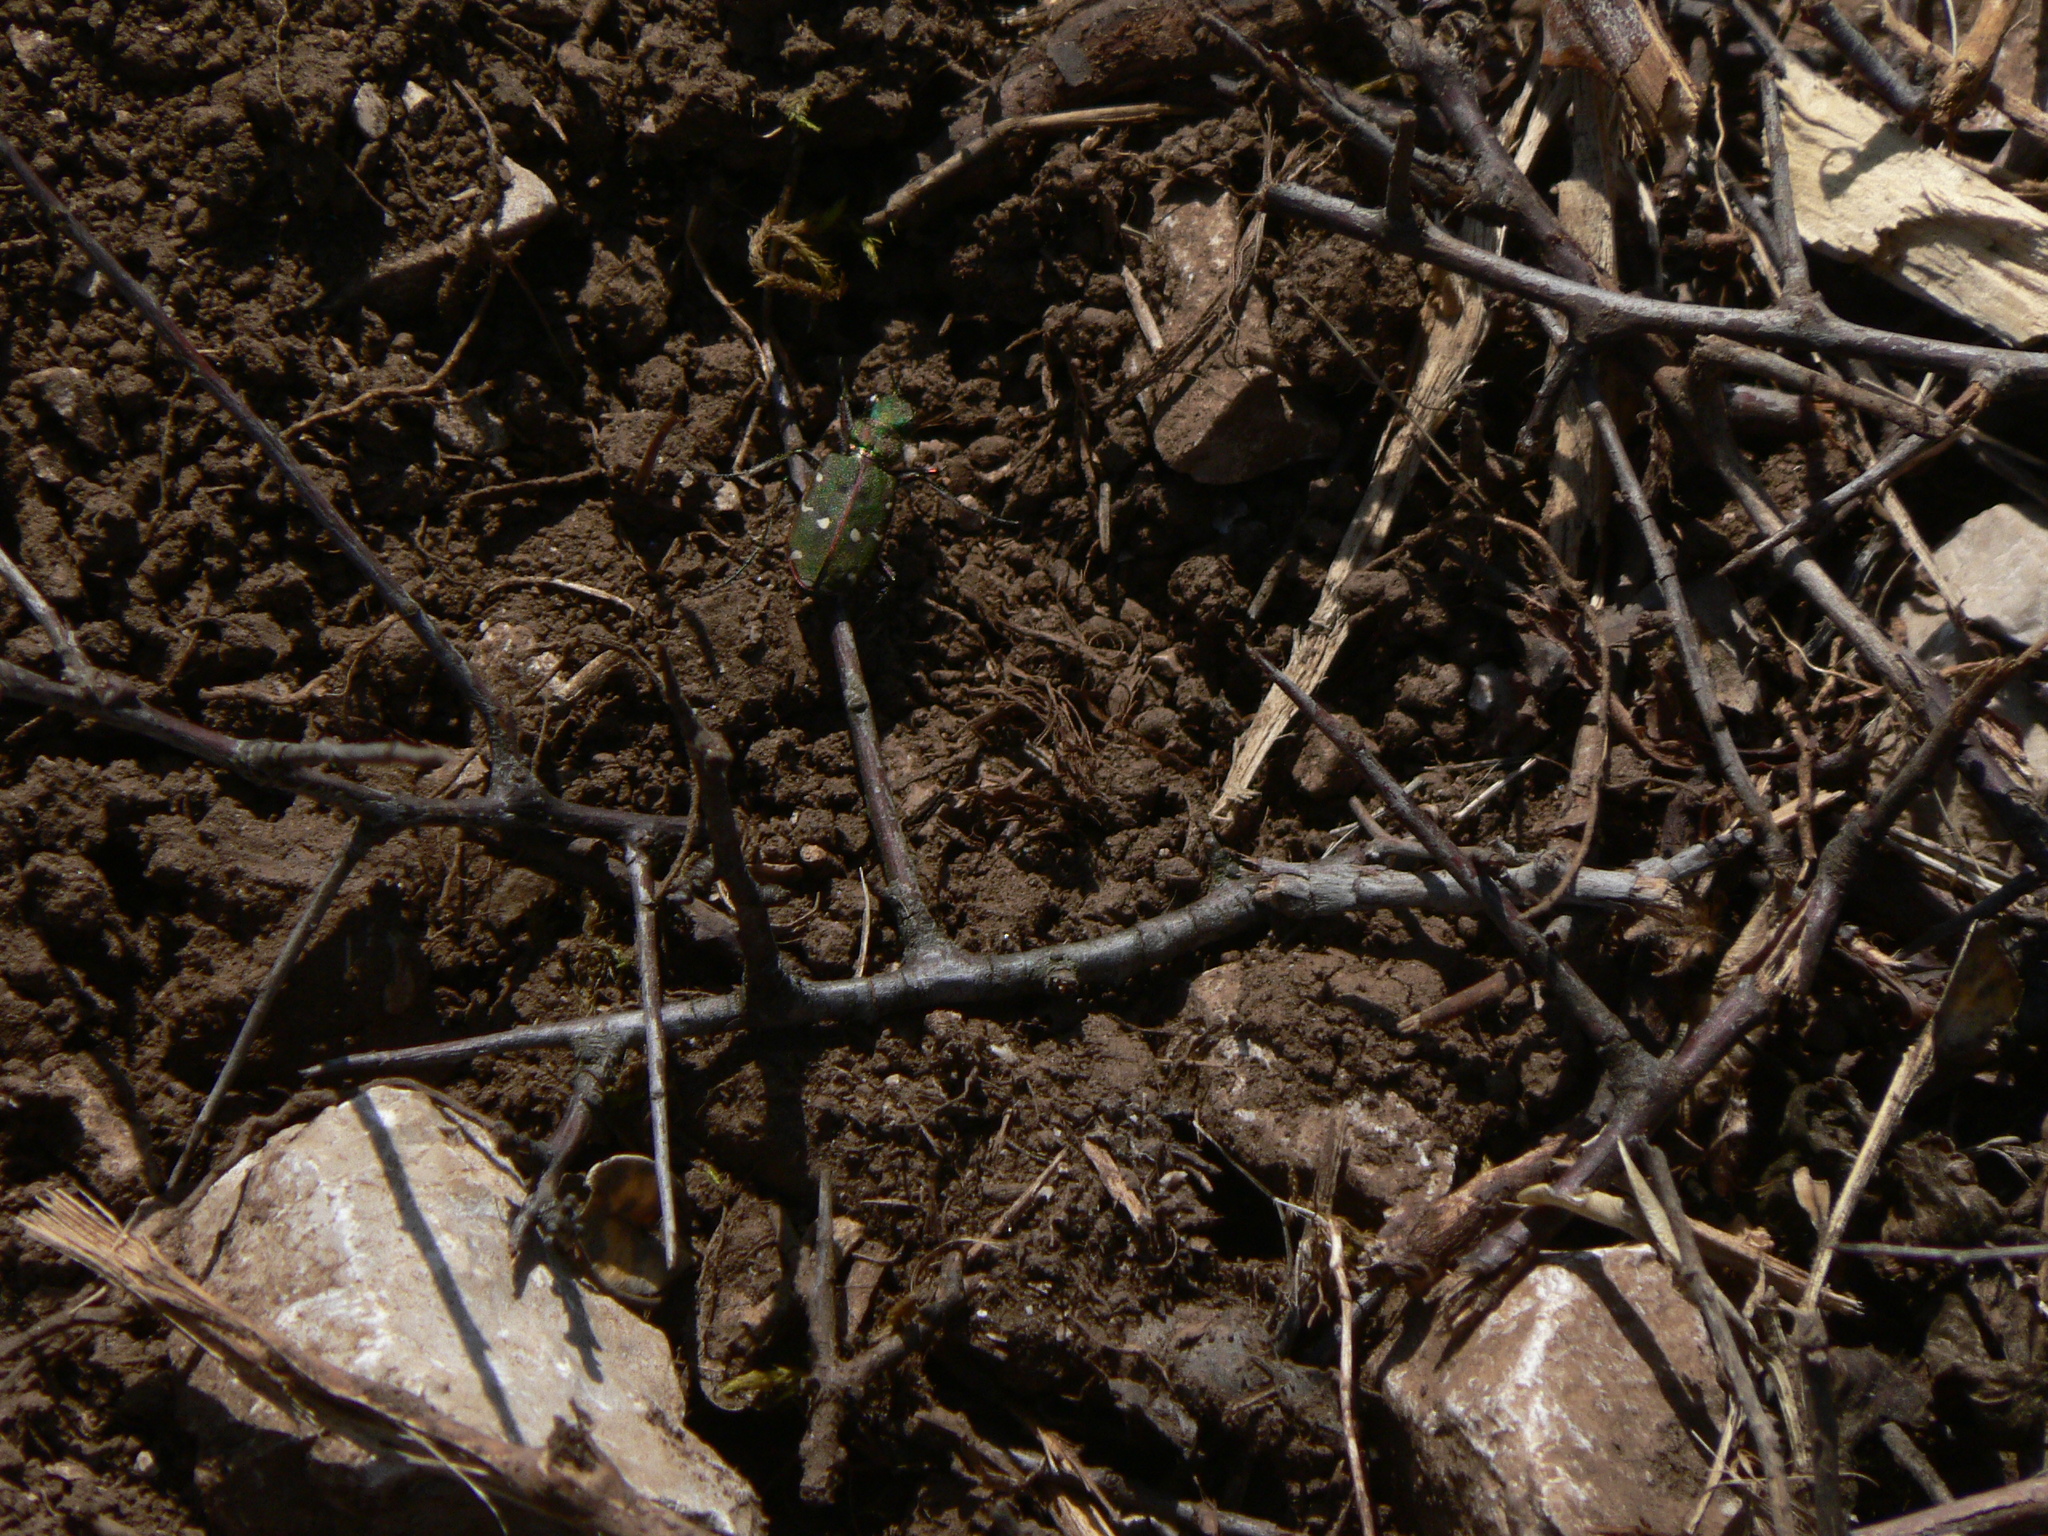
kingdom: Animalia
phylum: Arthropoda
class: Insecta
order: Coleoptera
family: Carabidae
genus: Cicindela
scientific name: Cicindela maroccana
